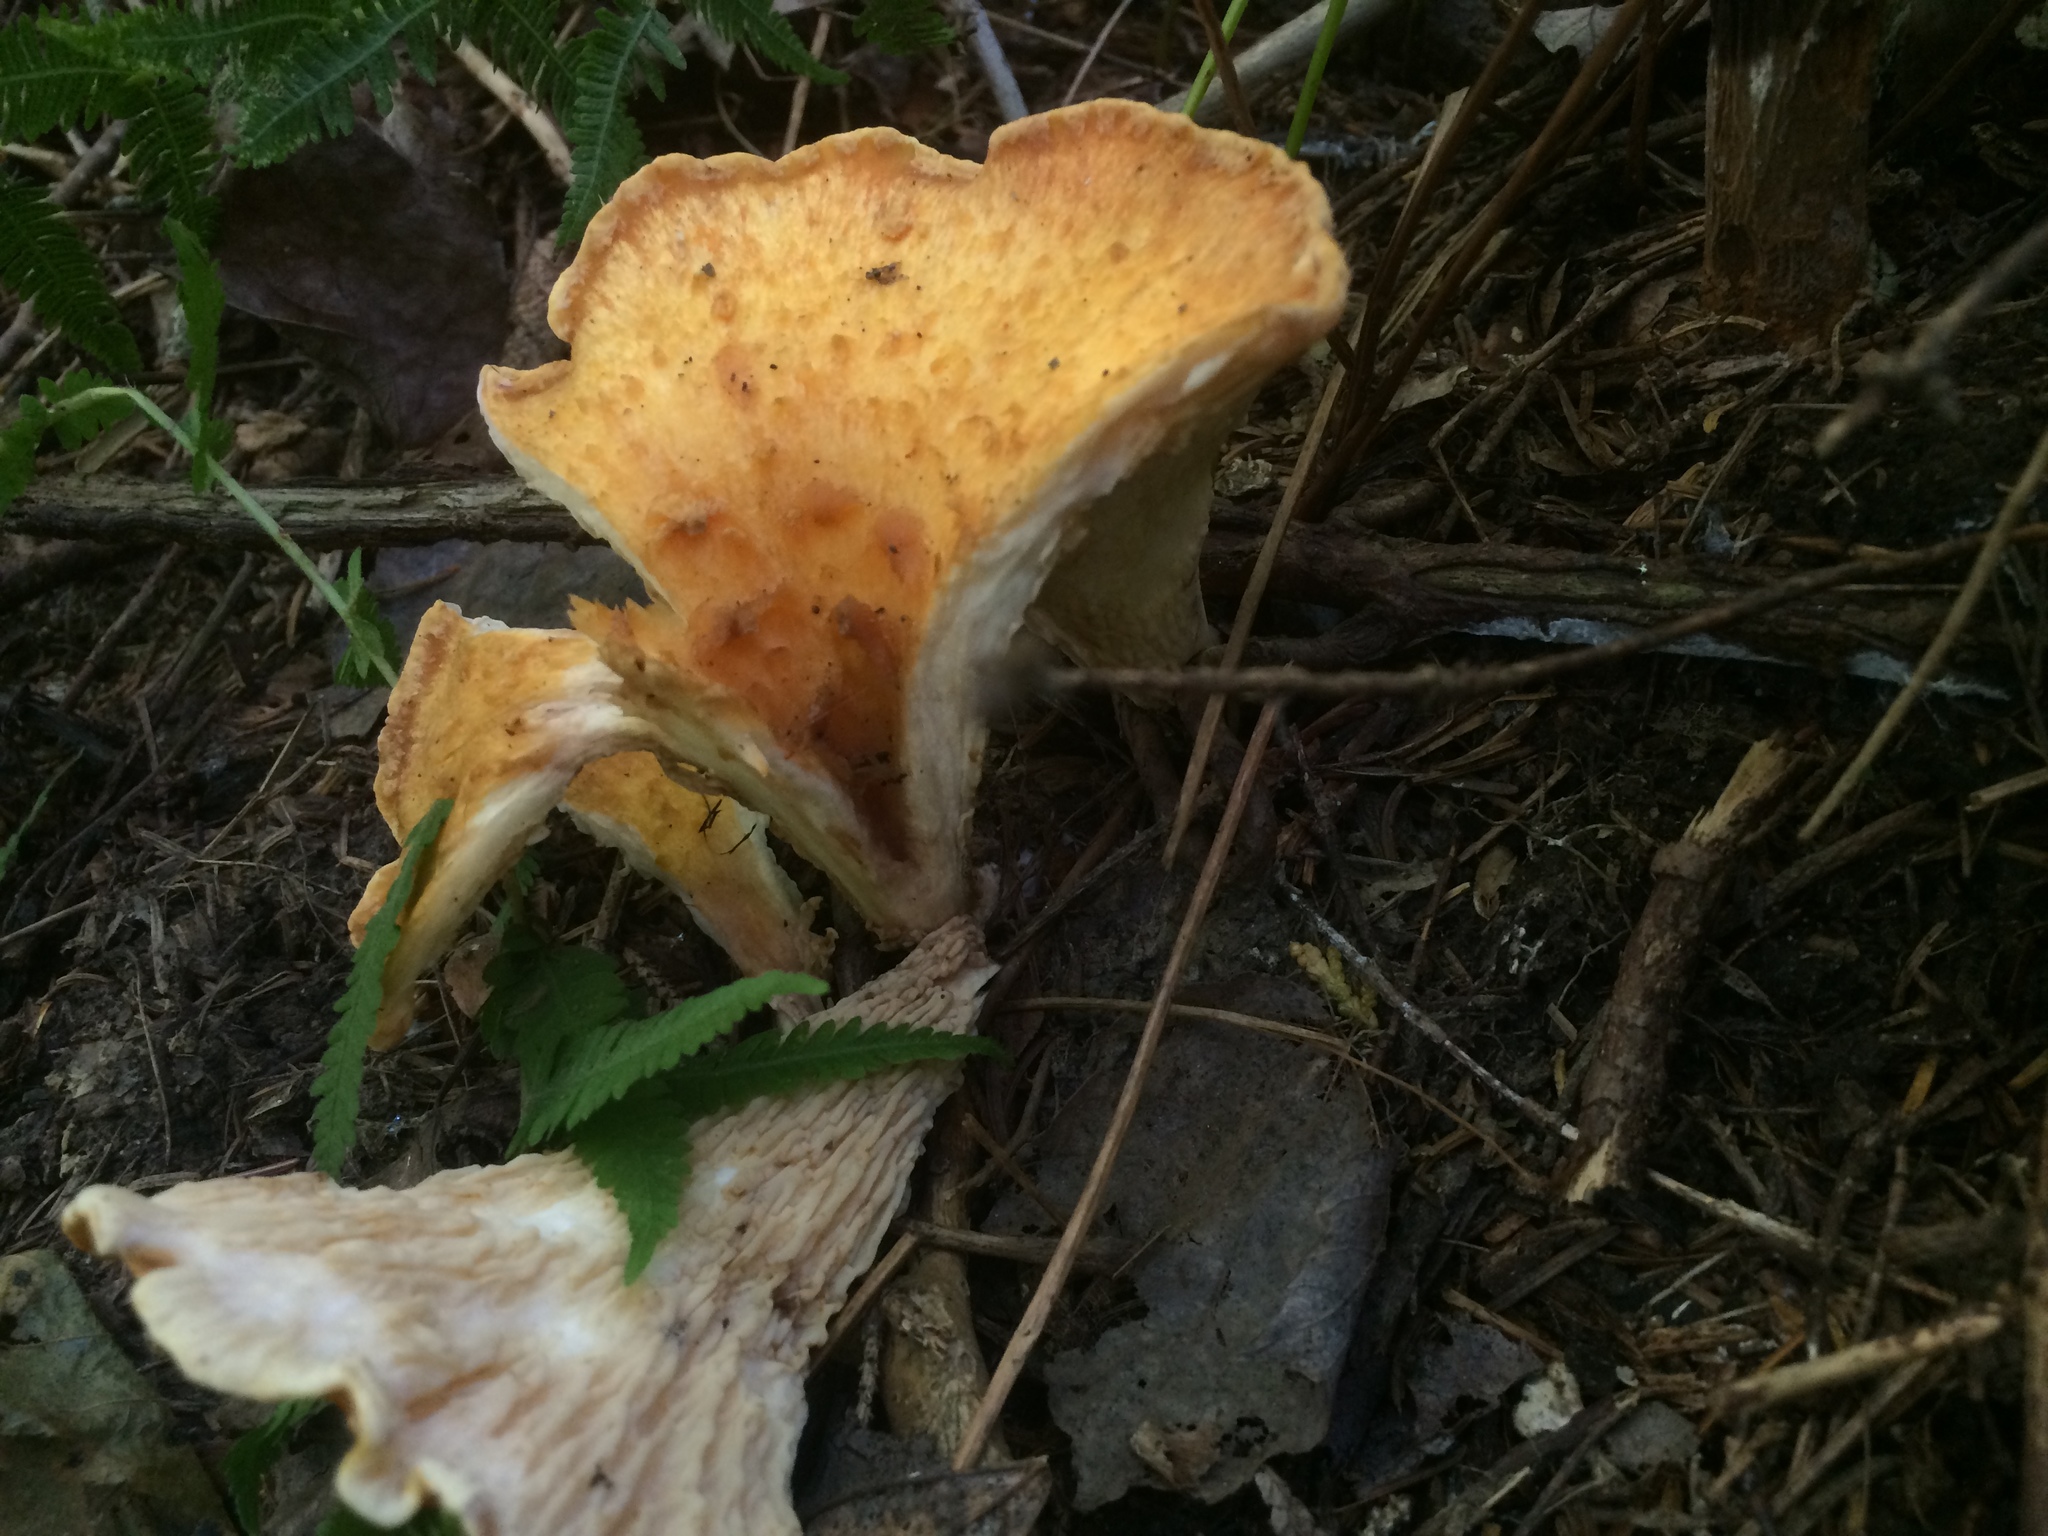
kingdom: Fungi
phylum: Basidiomycota
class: Agaricomycetes
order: Gomphales
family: Gomphaceae
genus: Turbinellus
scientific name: Turbinellus floccosus
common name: Scaly chanterelle
